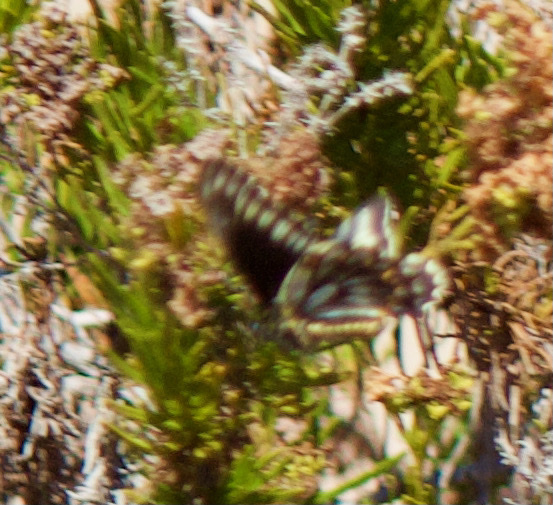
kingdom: Animalia
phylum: Arthropoda
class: Insecta
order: Lepidoptera
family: Papilionidae
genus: Battus
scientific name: Battus polydamas
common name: Polydamas swallowtail
